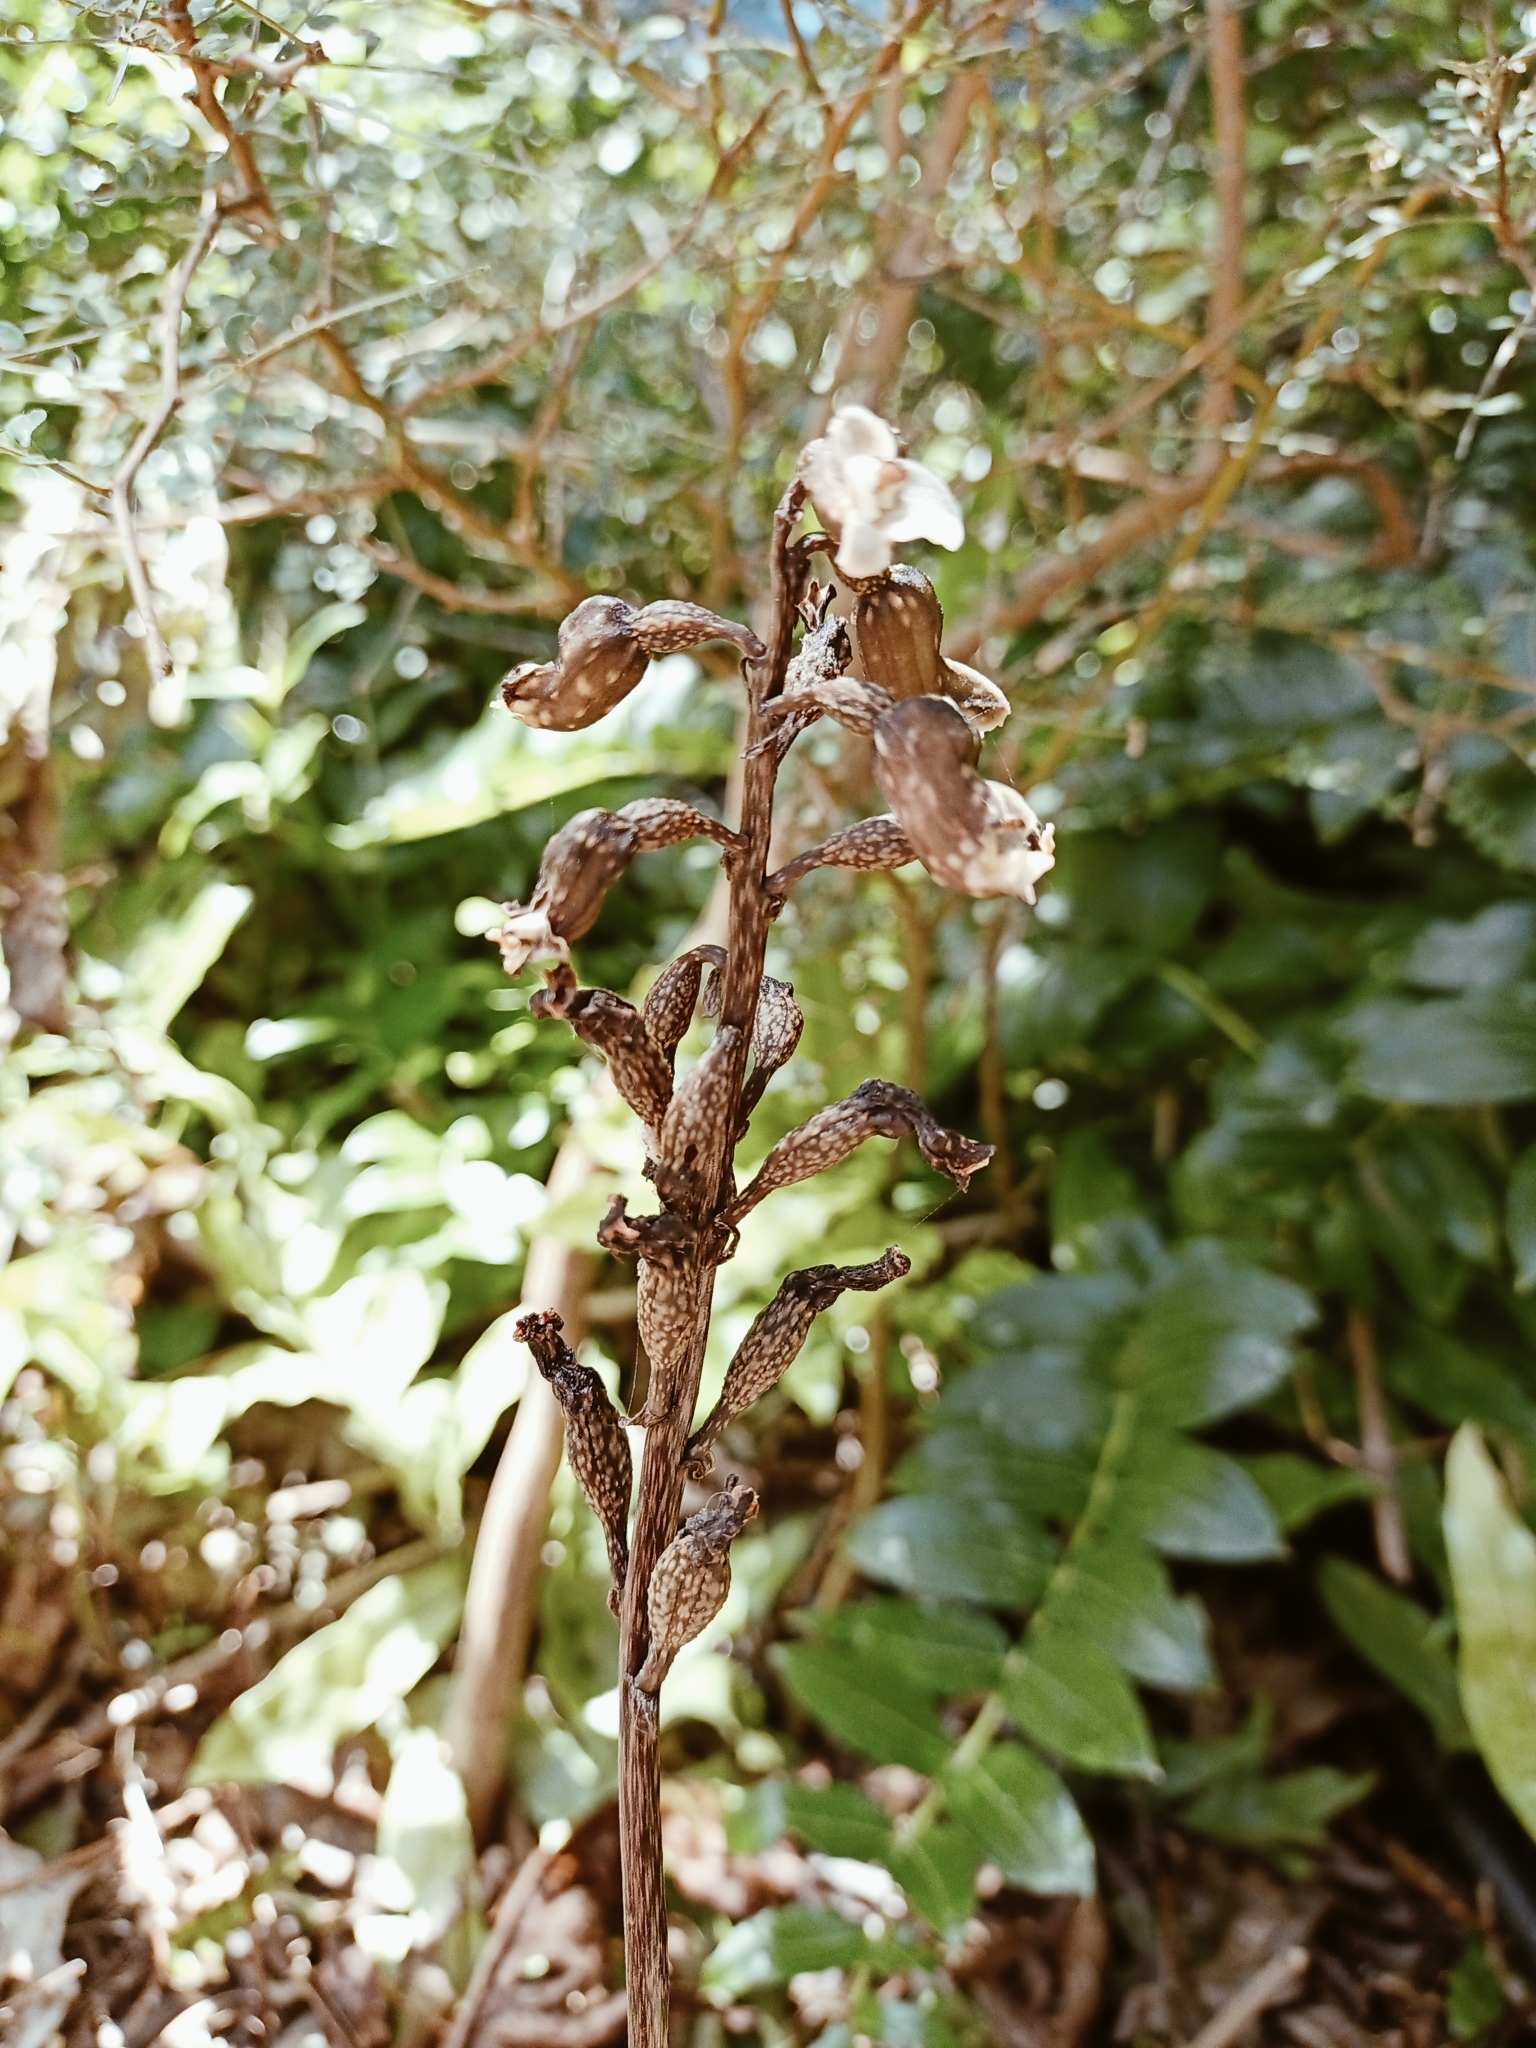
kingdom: Plantae
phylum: Tracheophyta
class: Liliopsida
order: Asparagales
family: Orchidaceae
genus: Gastrodia
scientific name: Gastrodia cunninghamii
